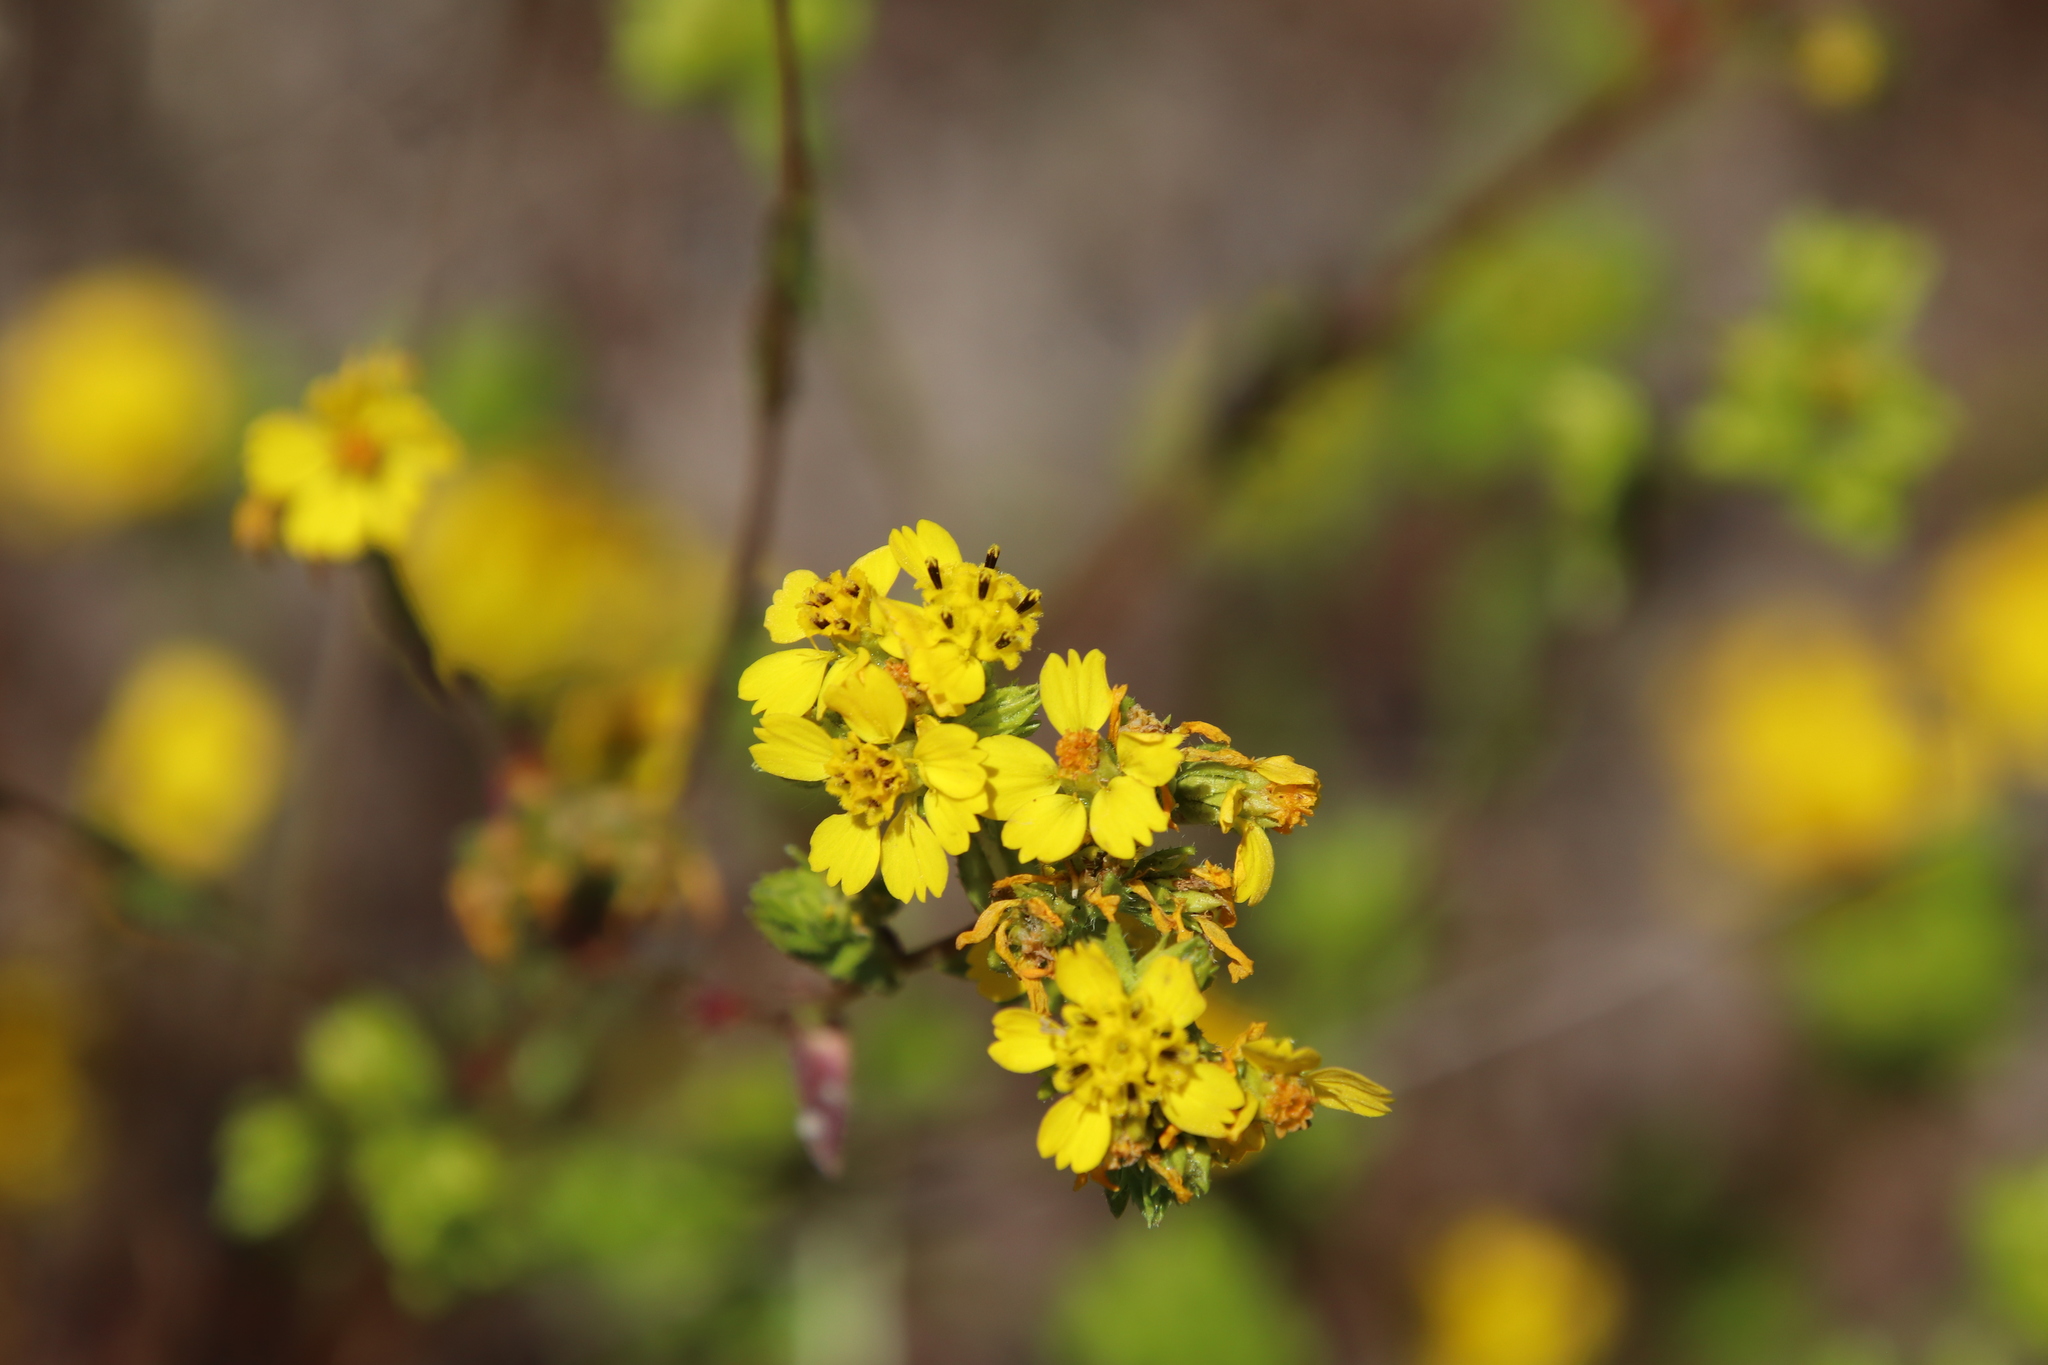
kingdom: Plantae
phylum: Tracheophyta
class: Magnoliopsida
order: Asterales
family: Asteraceae
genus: Deinandra
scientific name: Deinandra fasciculata
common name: Clustered tarweed
